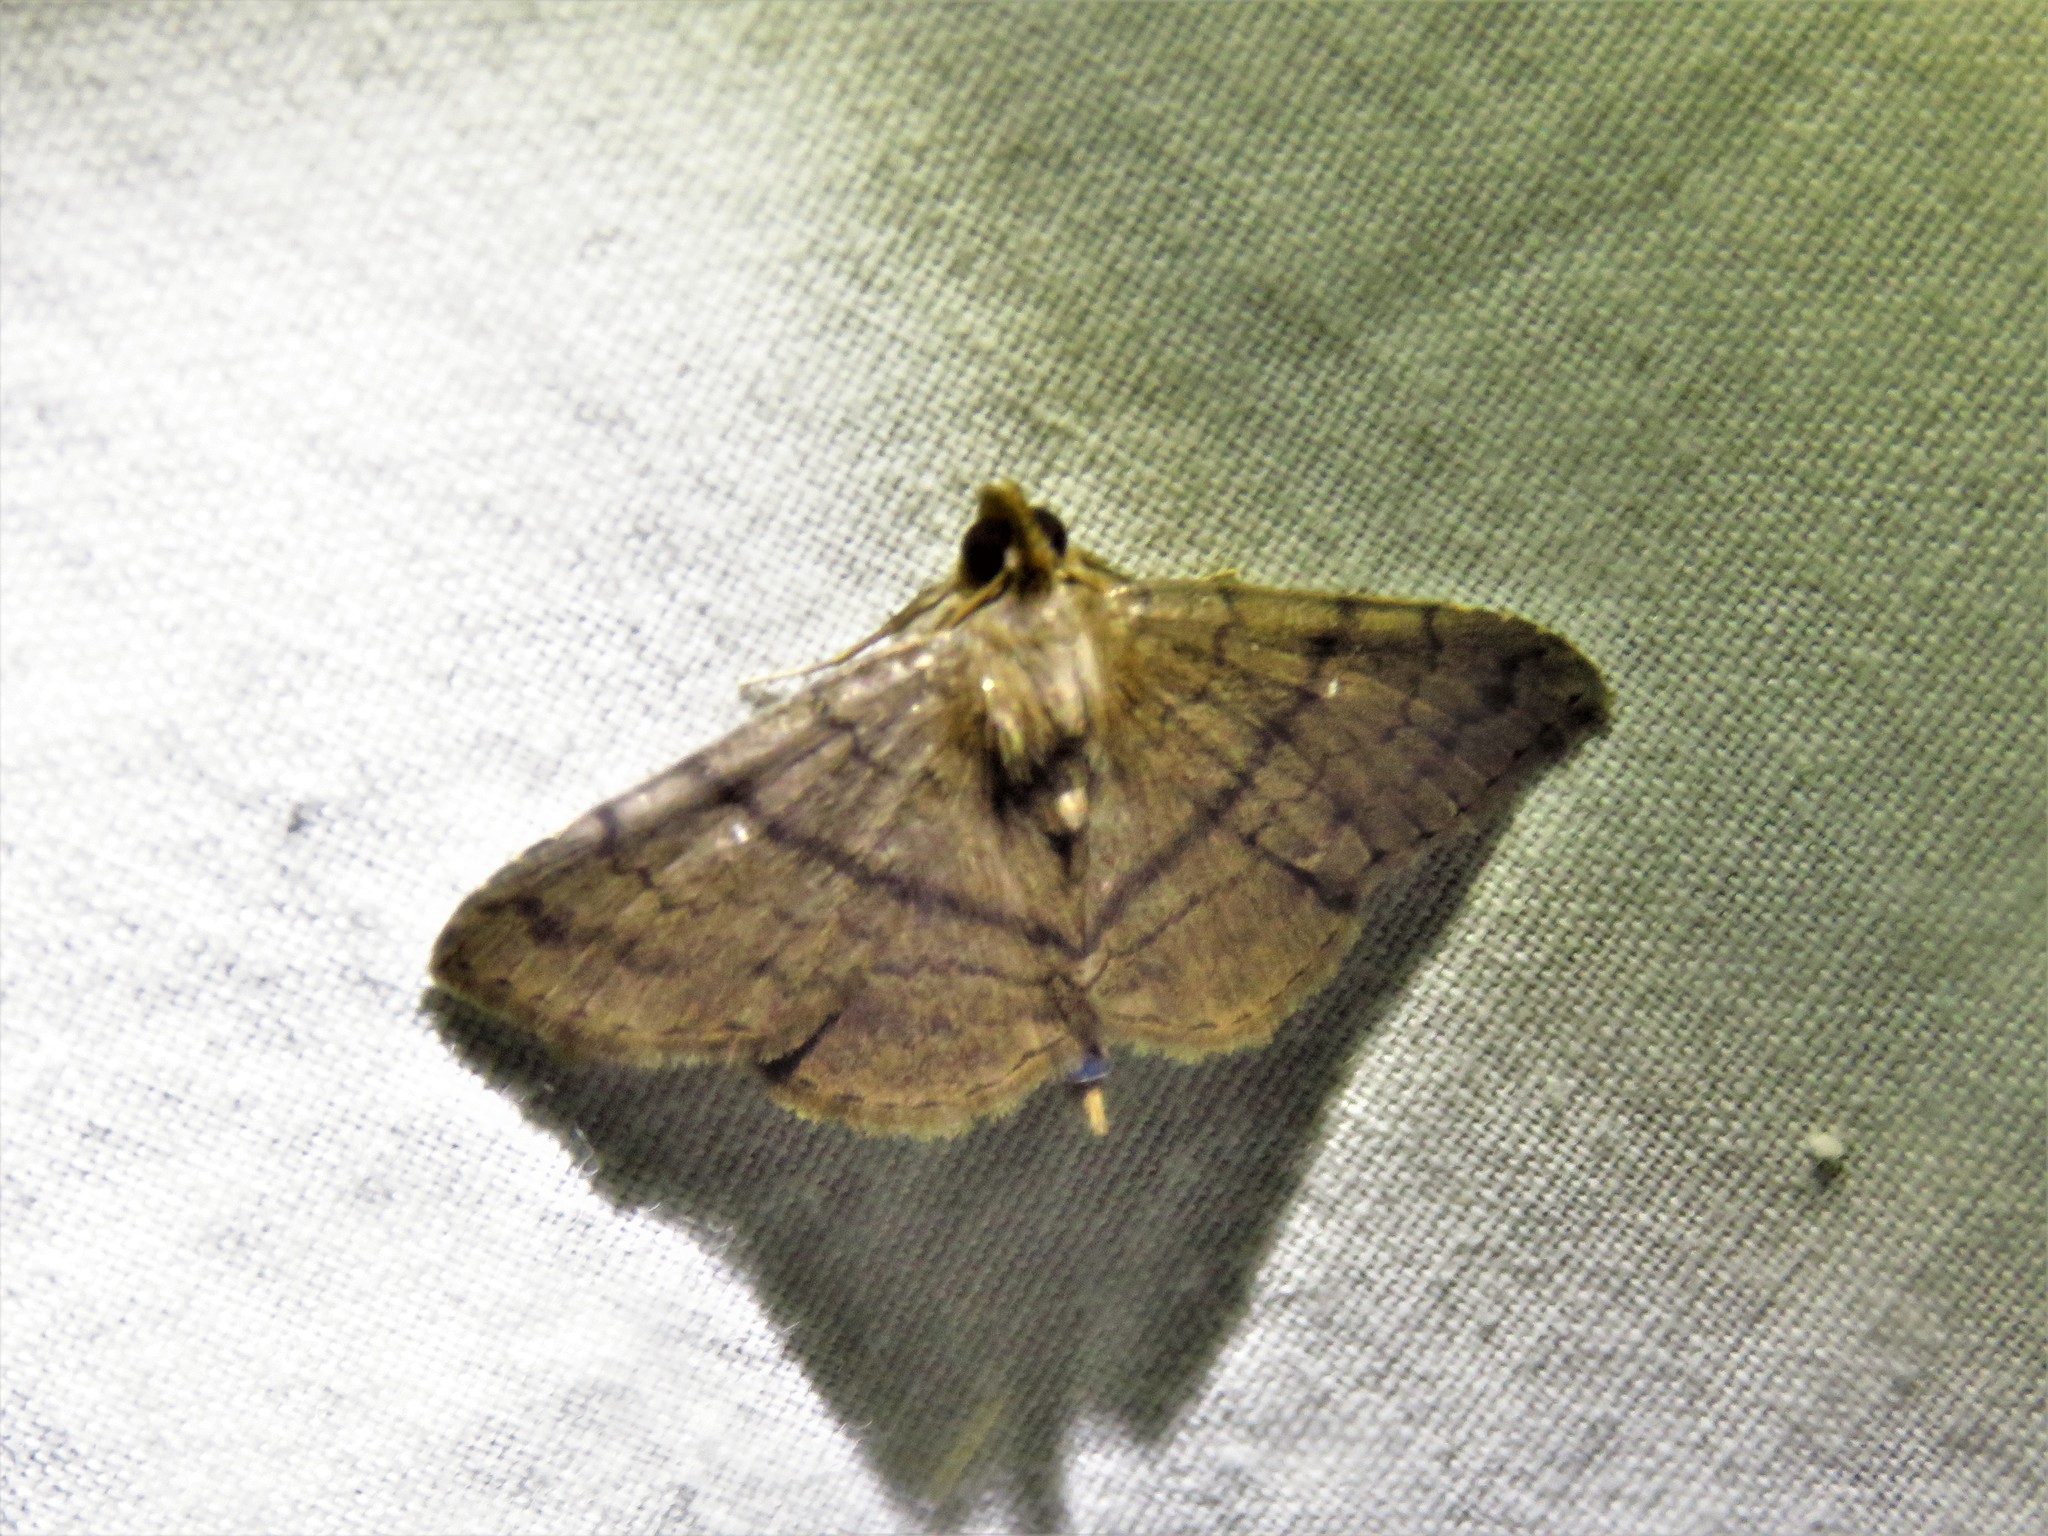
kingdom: Animalia
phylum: Arthropoda
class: Insecta
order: Lepidoptera
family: Erebidae
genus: Carteris
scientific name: Carteris lineata
